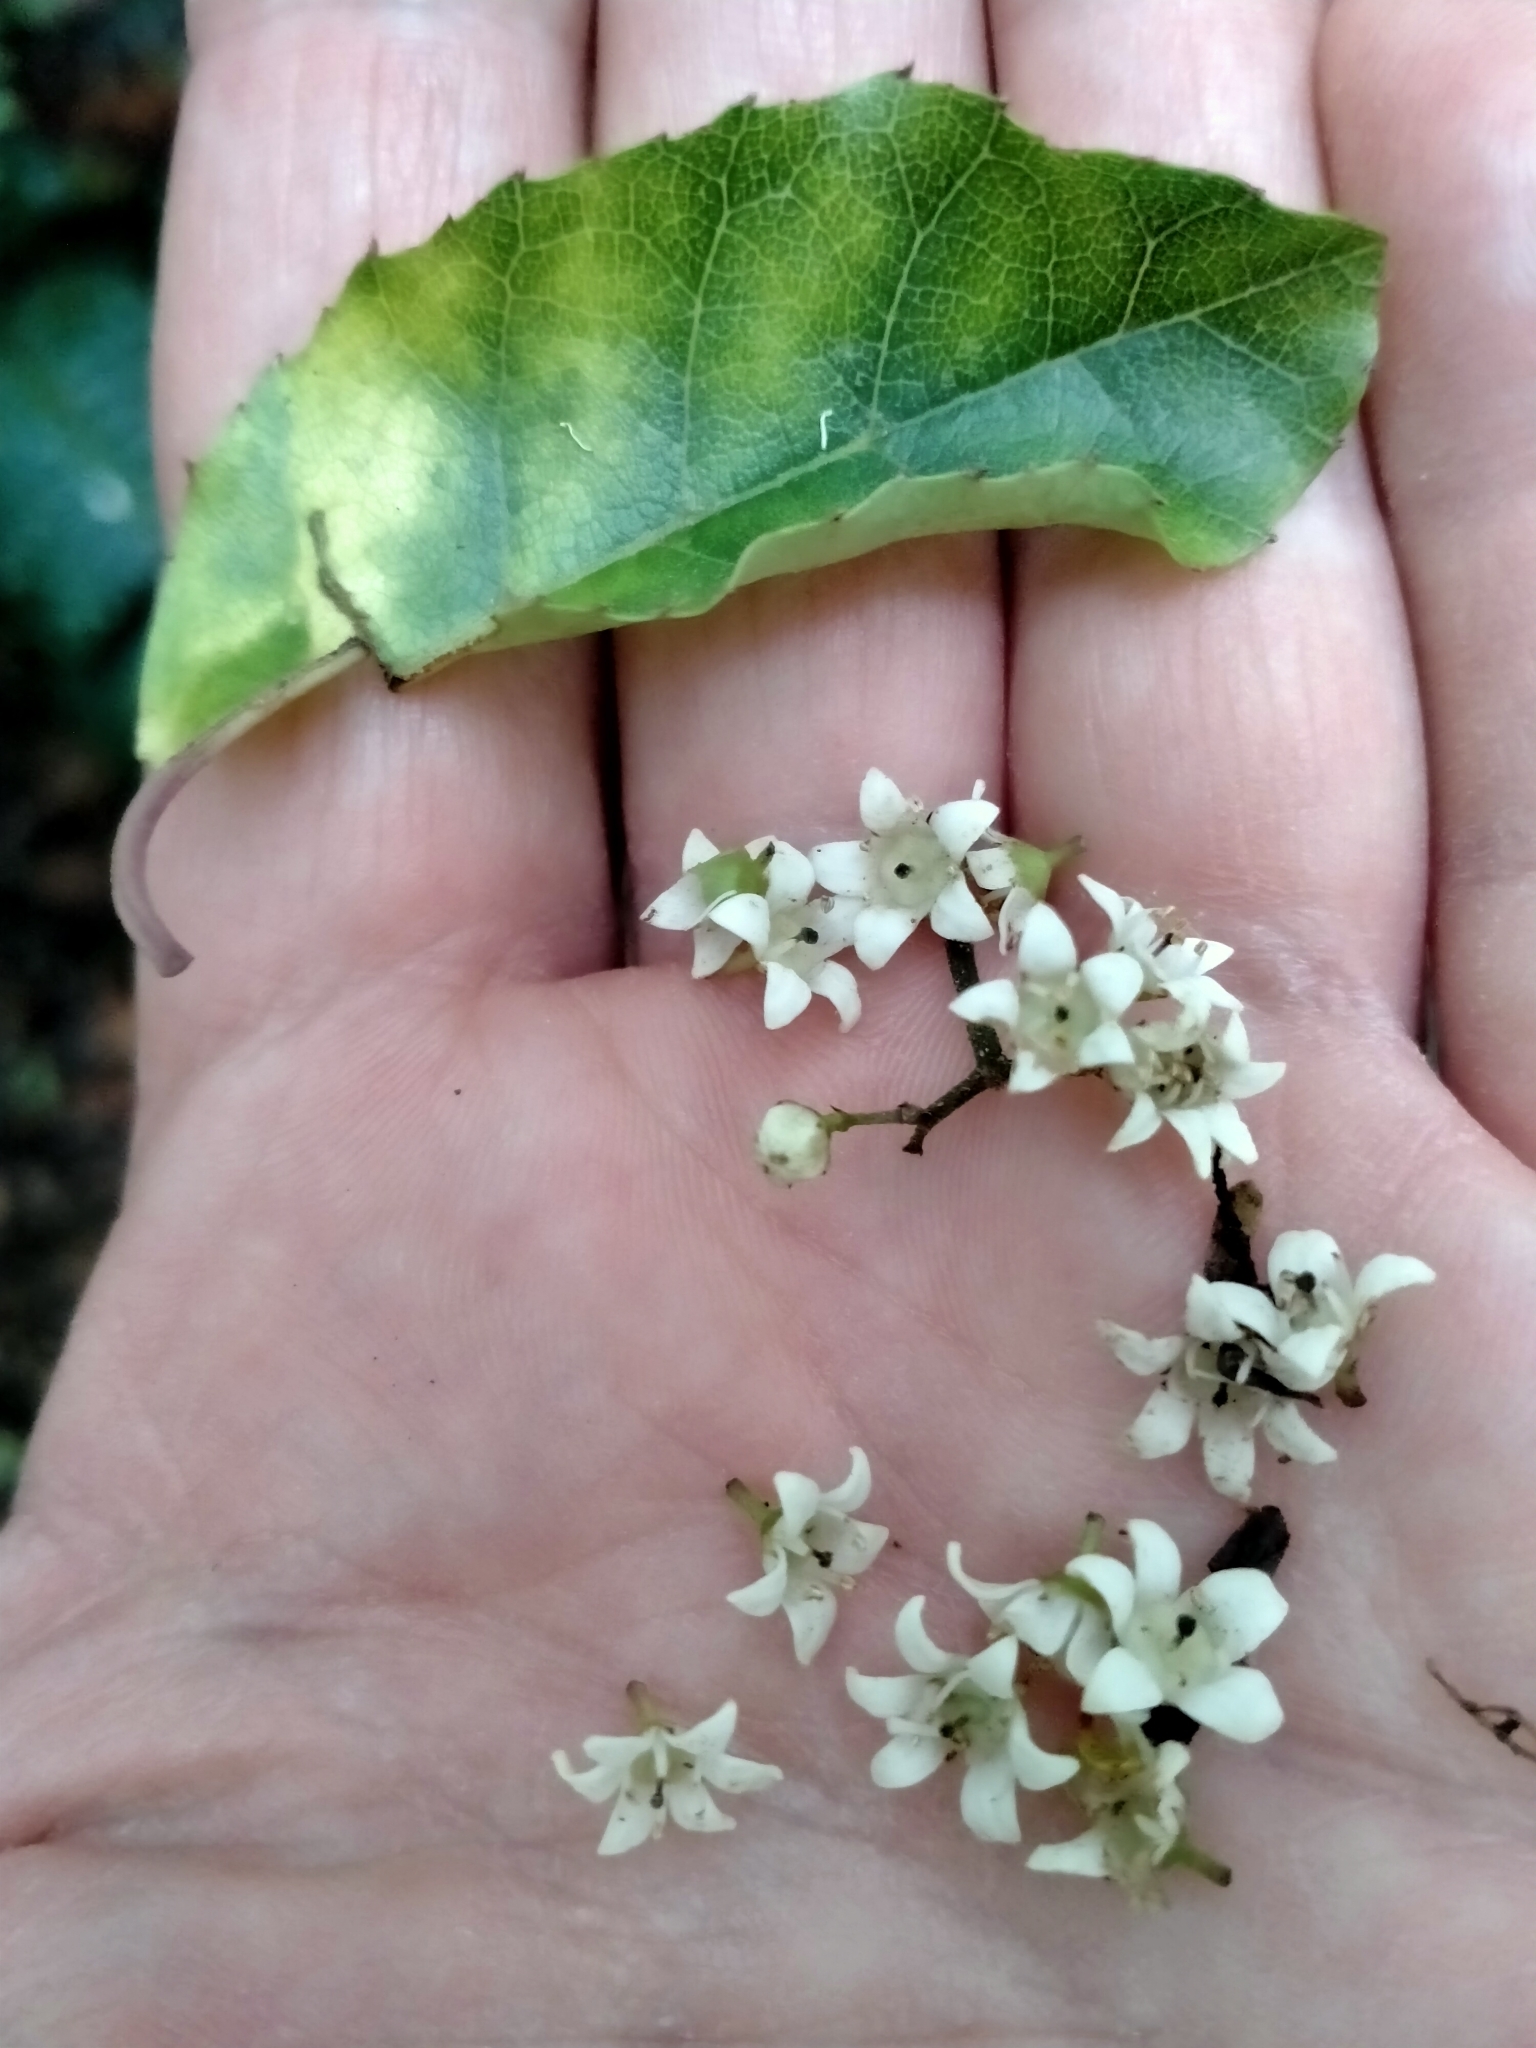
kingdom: Plantae
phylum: Tracheophyta
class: Magnoliopsida
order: Asterales
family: Rousseaceae
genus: Carpodetus
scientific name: Carpodetus serratus
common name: White mapau
